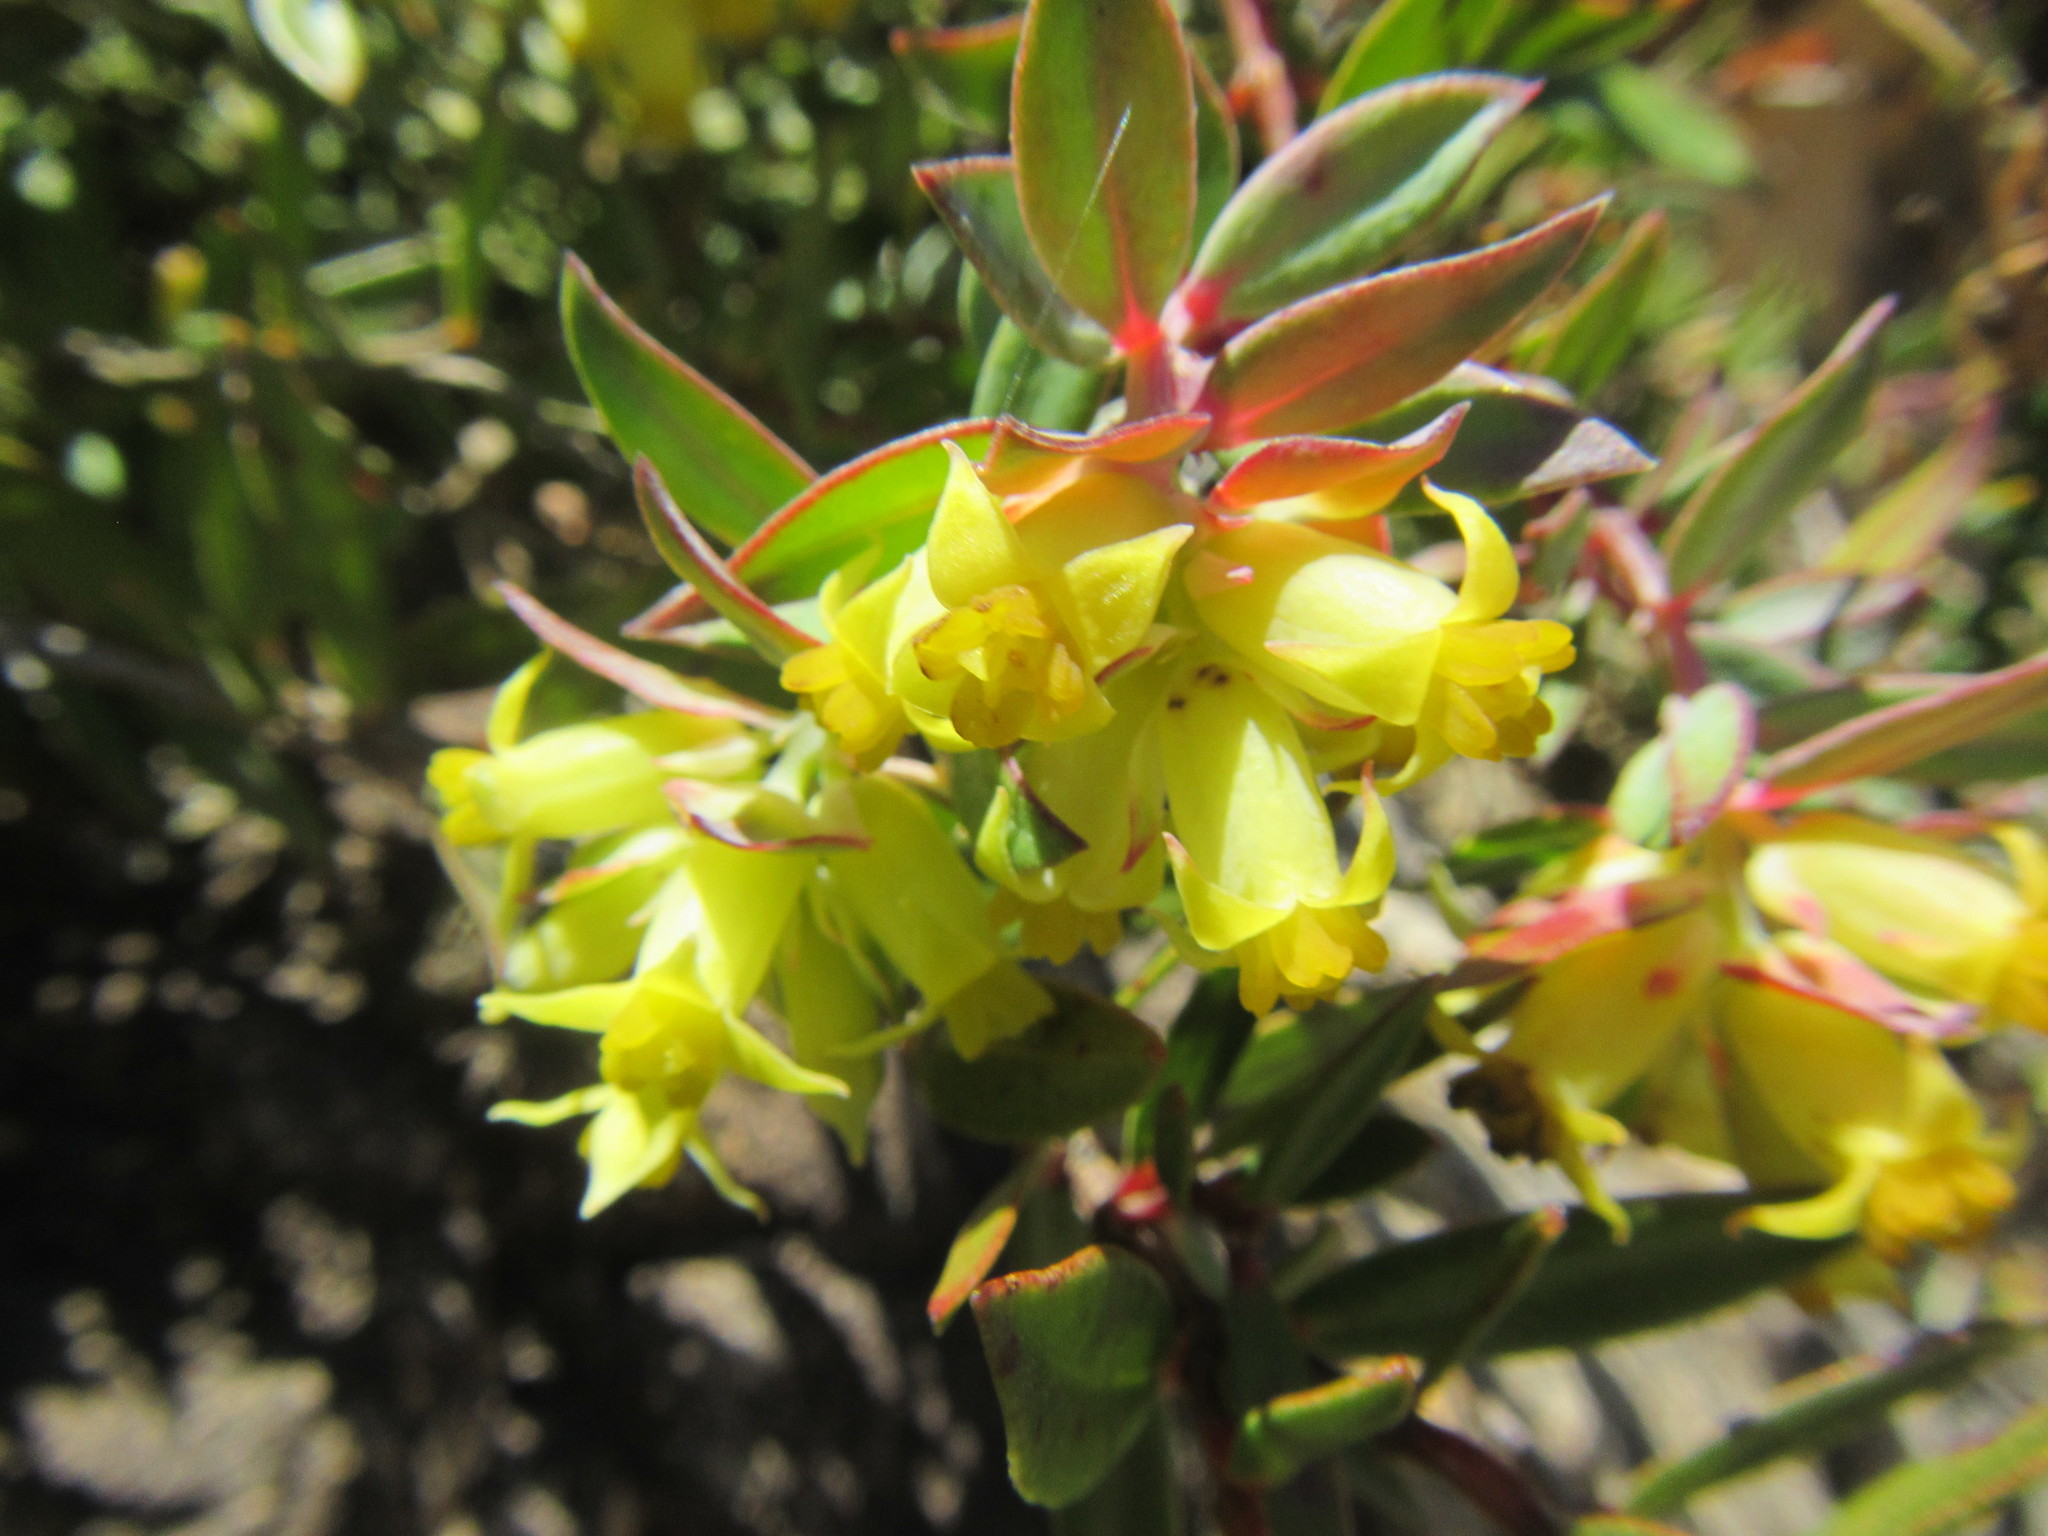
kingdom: Plantae
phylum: Tracheophyta
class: Magnoliopsida
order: Myrtales
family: Penaeaceae
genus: Penaea
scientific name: Penaea acutifolia
